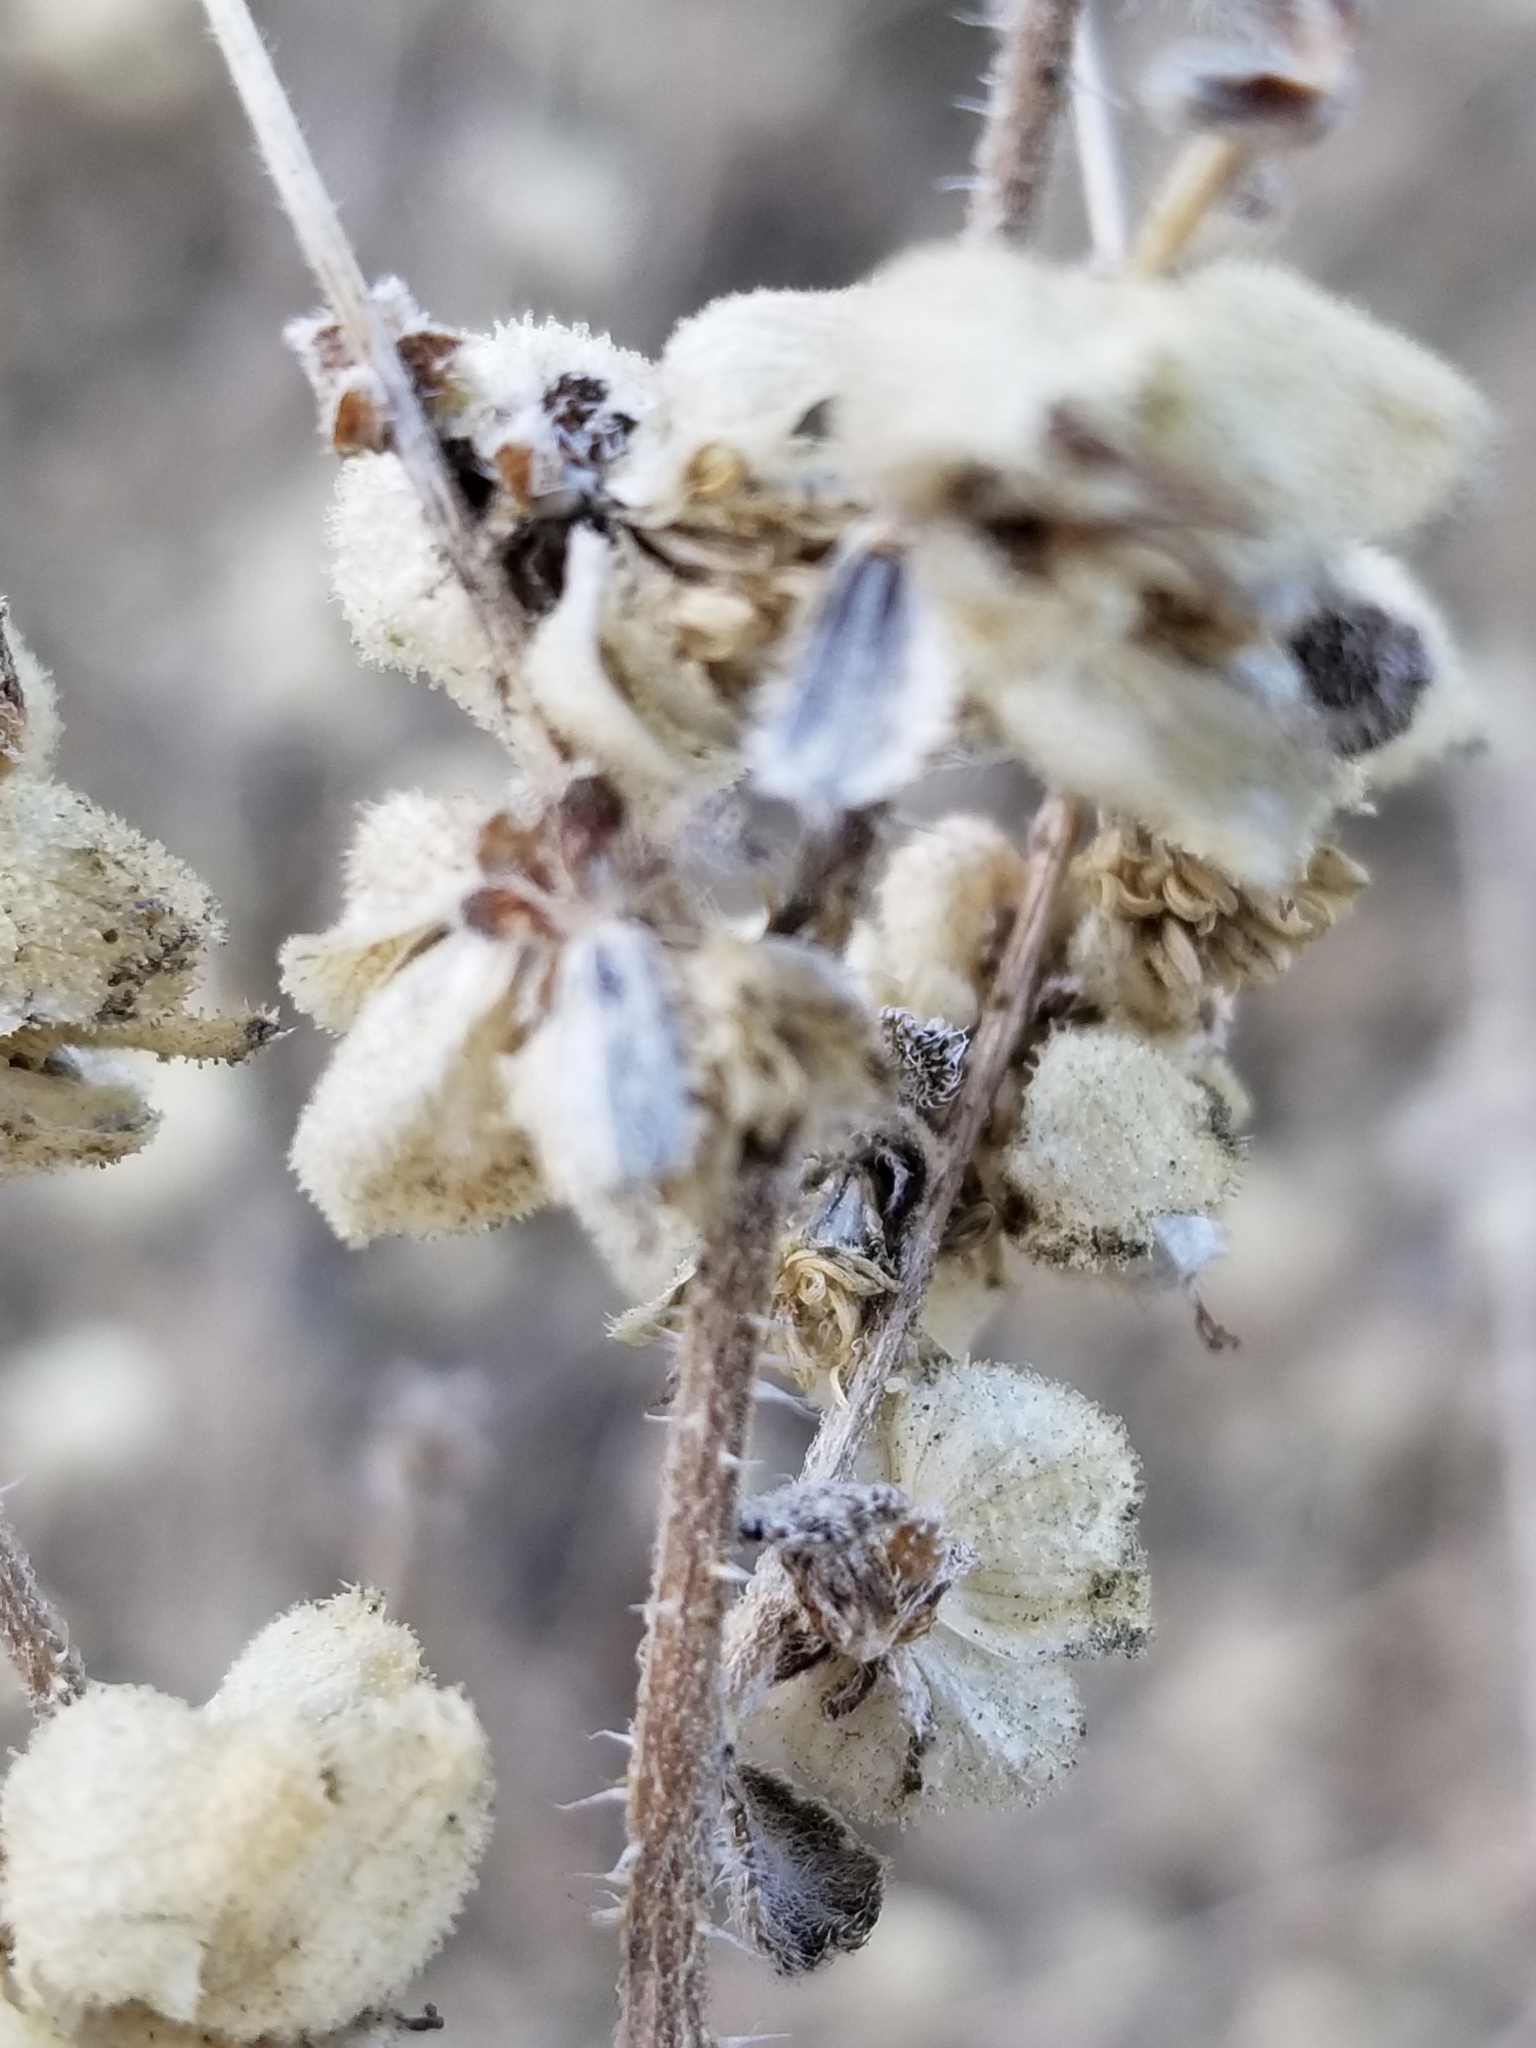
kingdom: Plantae
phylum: Tracheophyta
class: Magnoliopsida
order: Asterales
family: Asteraceae
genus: Dicoria
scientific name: Dicoria canescens
